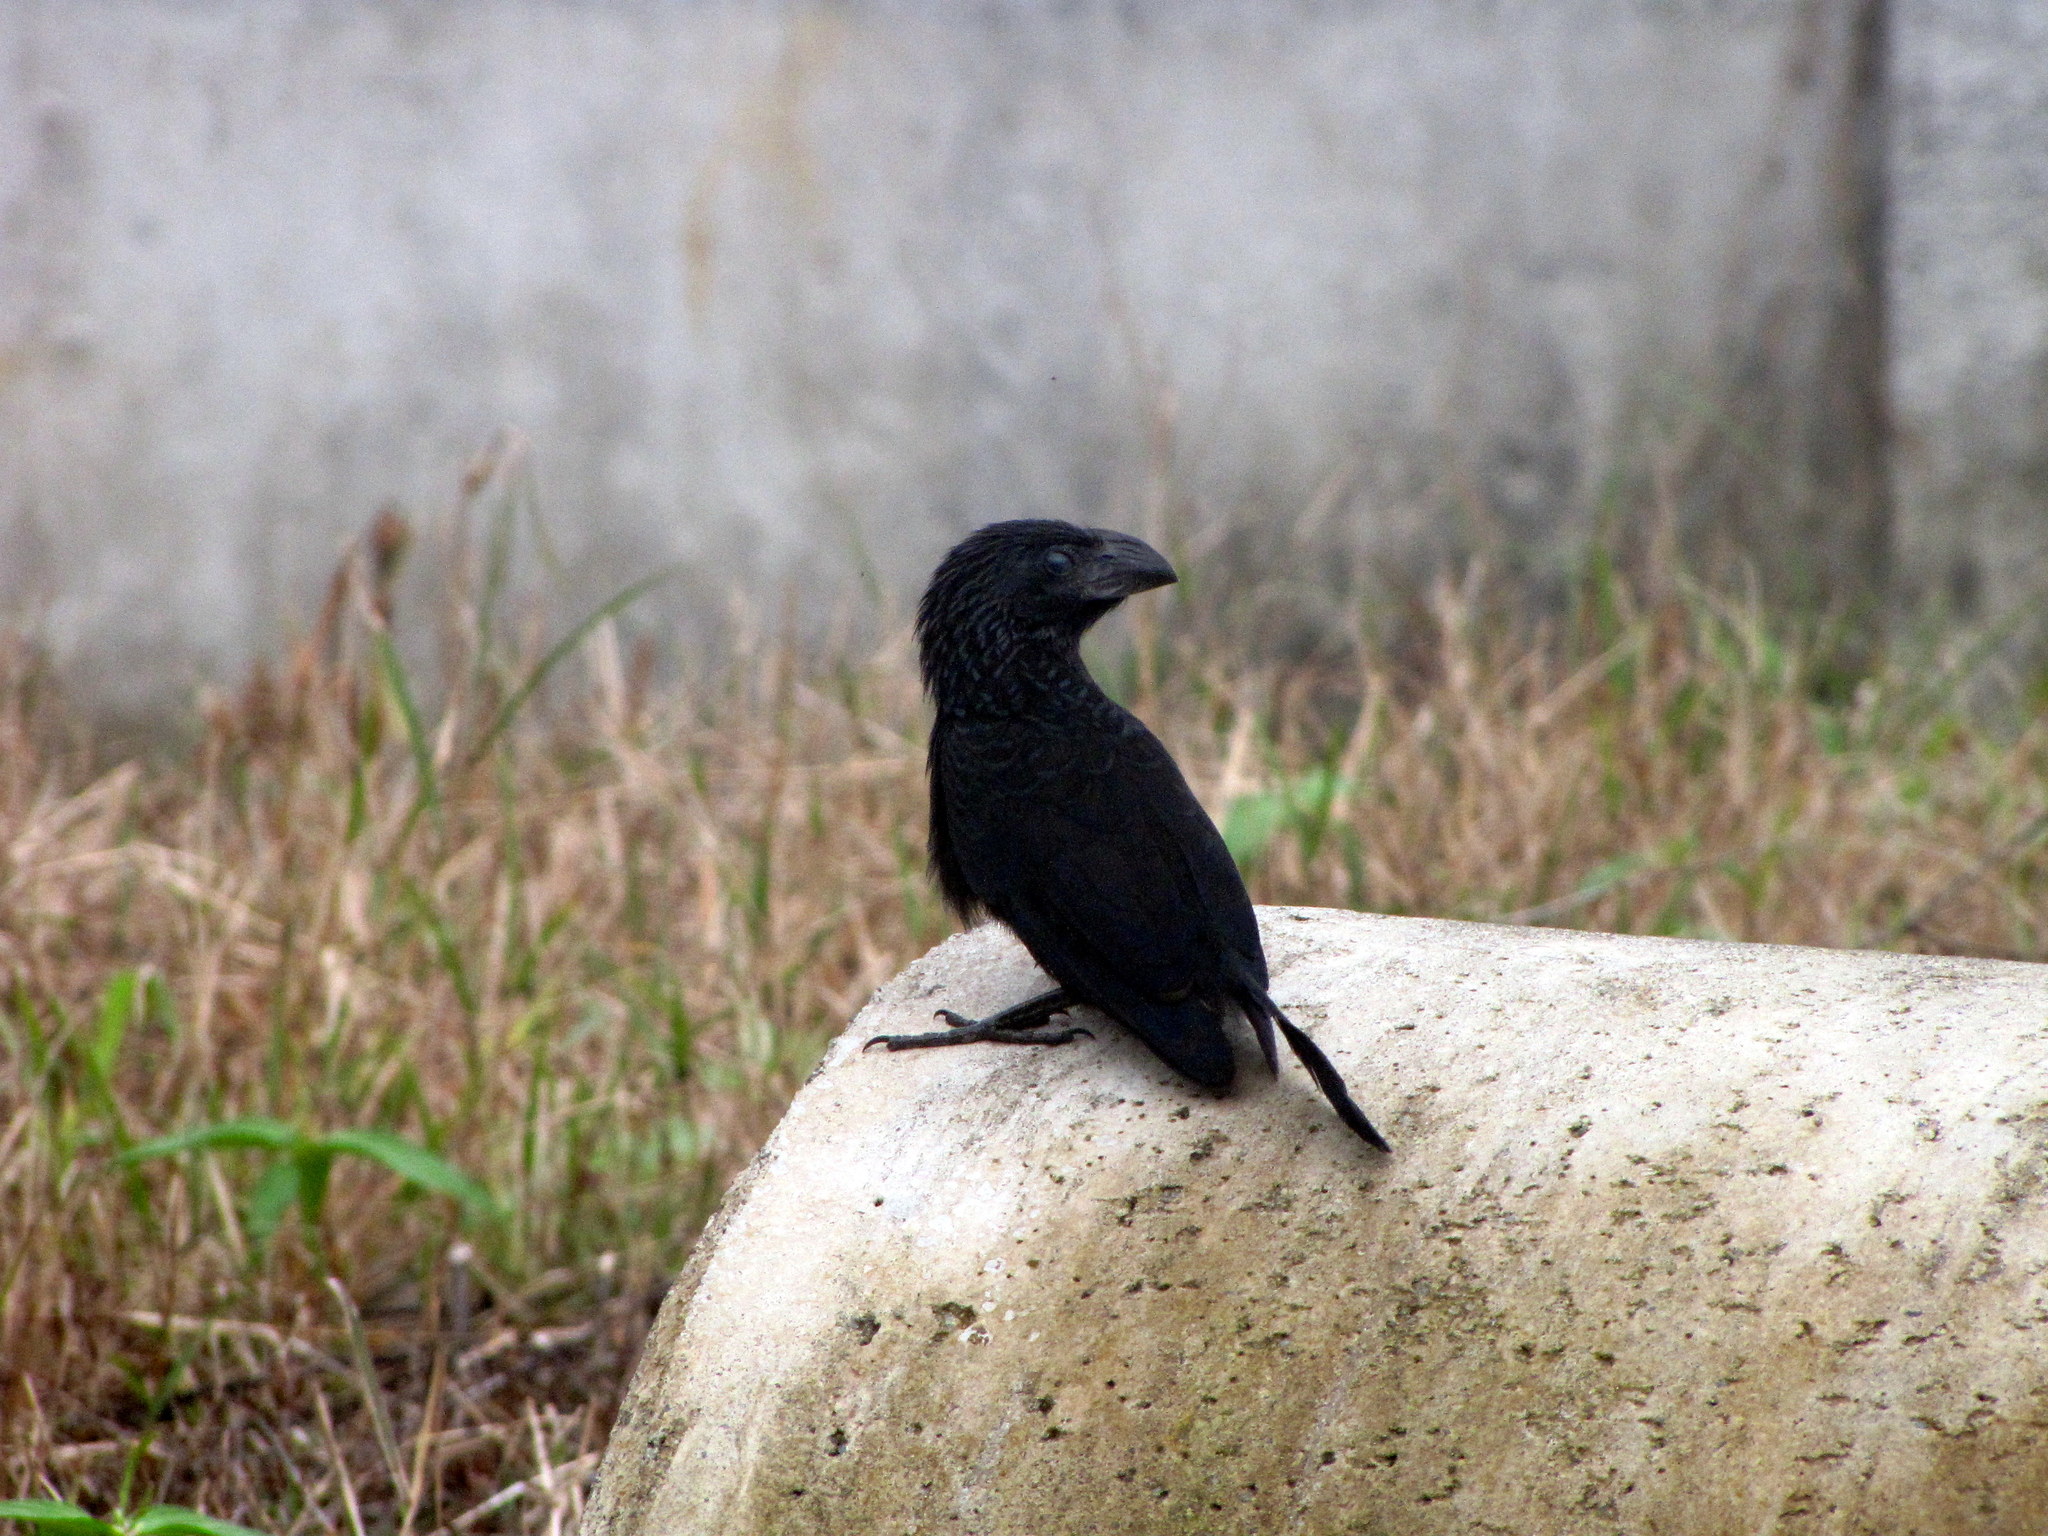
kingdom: Animalia
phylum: Chordata
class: Aves
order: Cuculiformes
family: Cuculidae
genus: Crotophaga
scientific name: Crotophaga sulcirostris
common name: Groove-billed ani
